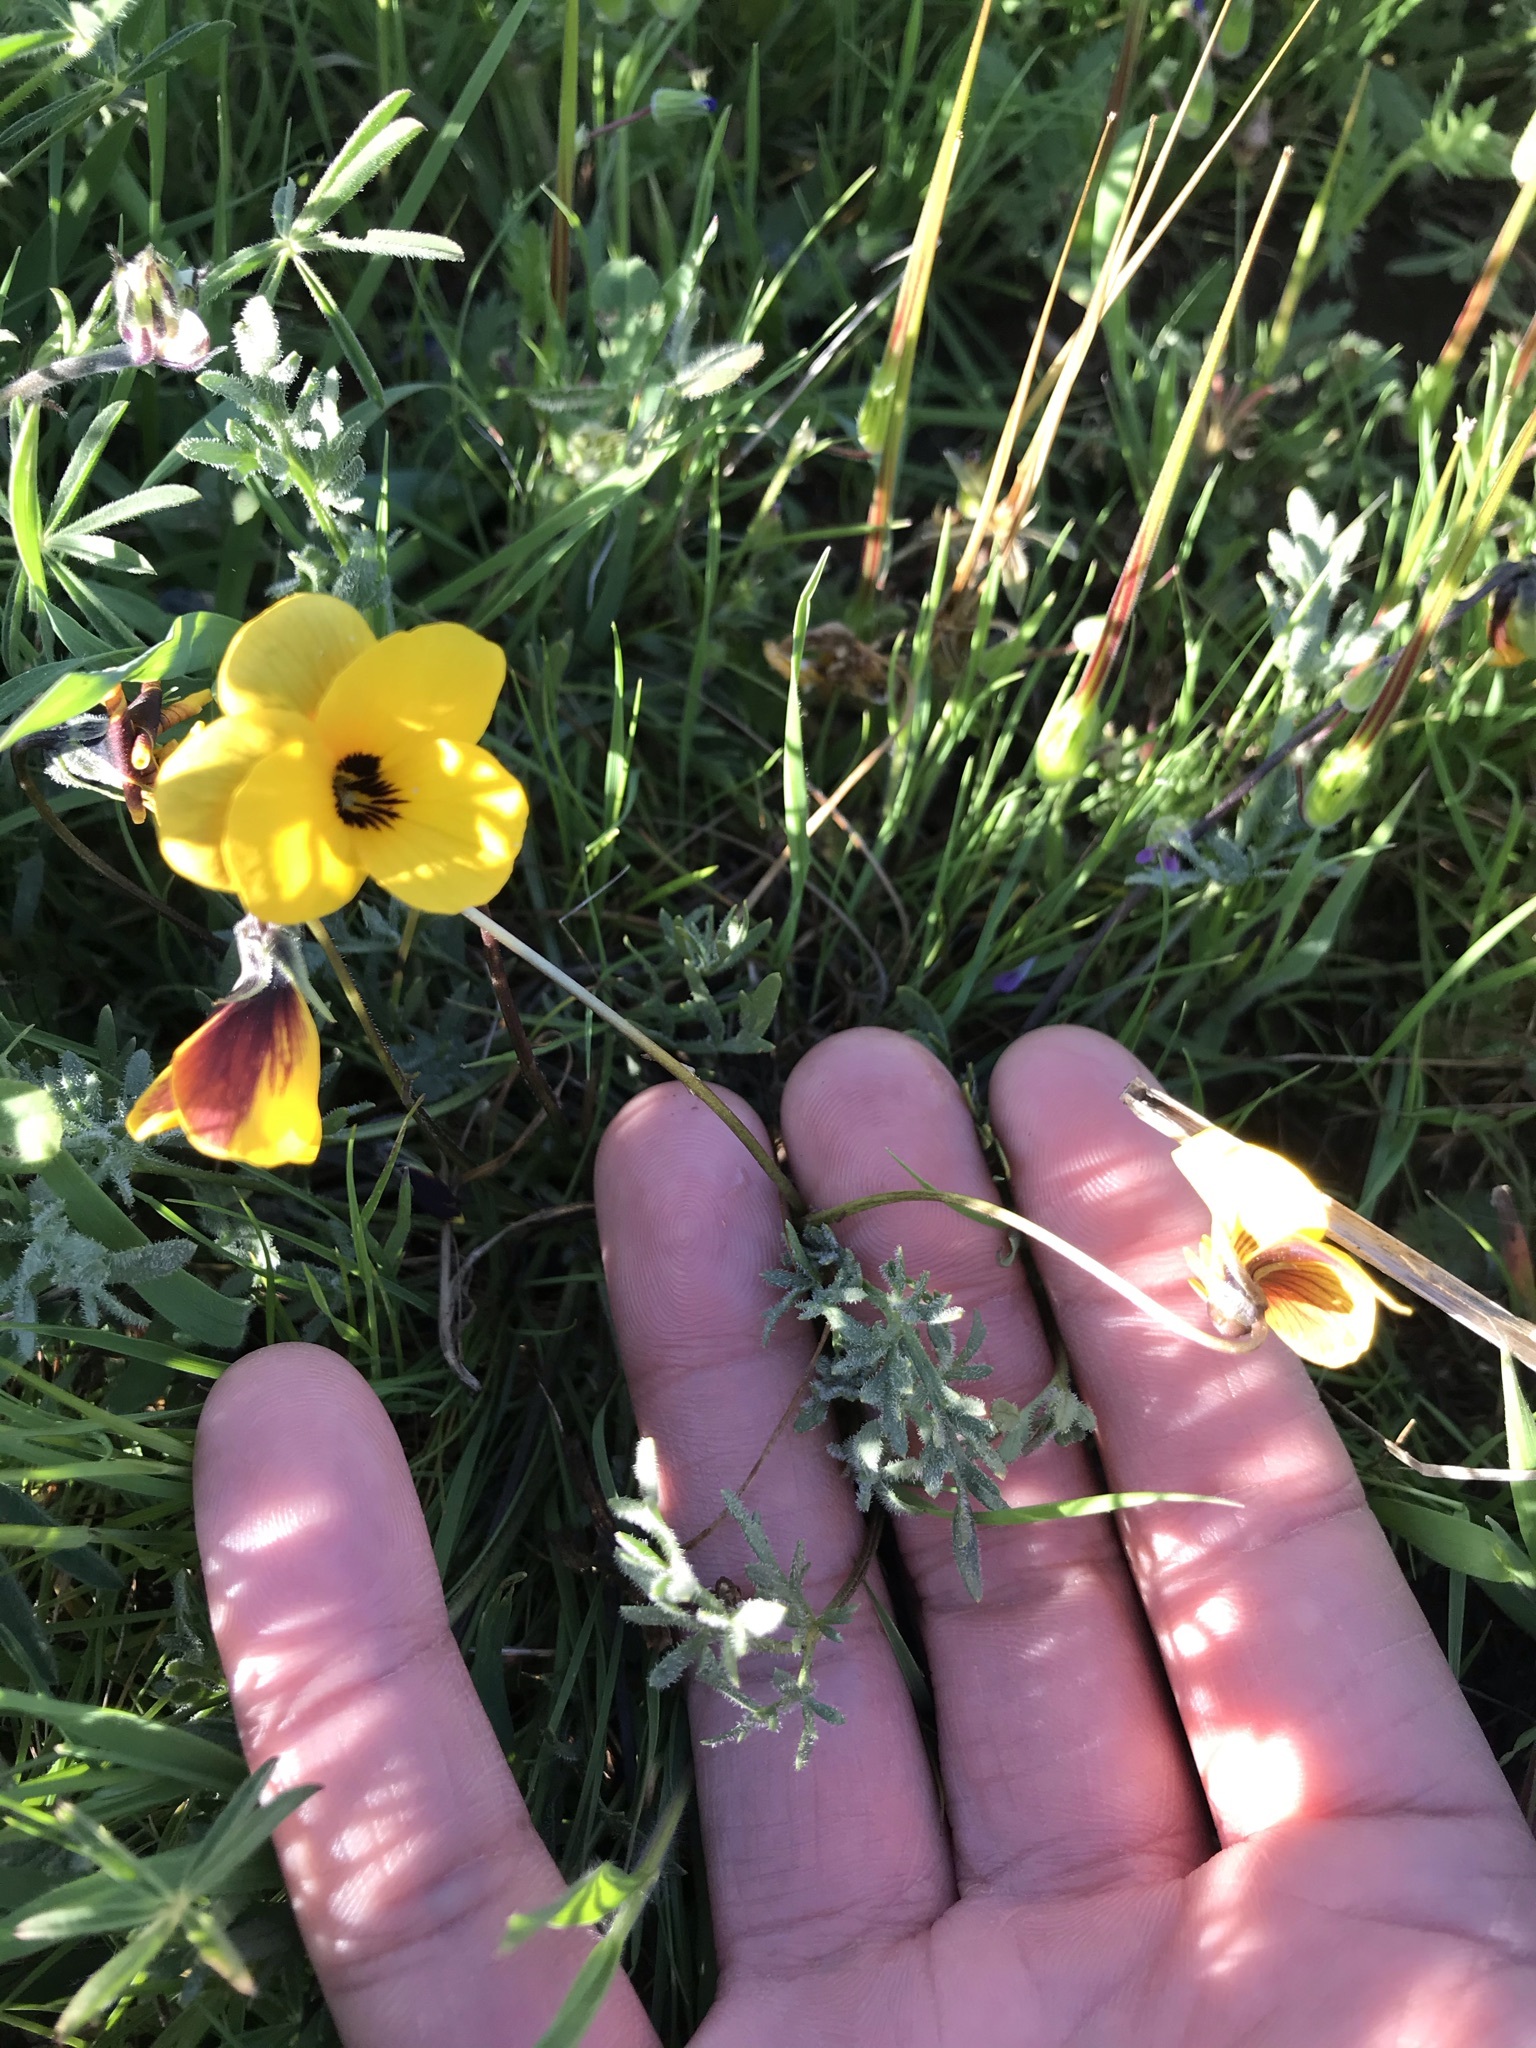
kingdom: Plantae
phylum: Tracheophyta
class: Magnoliopsida
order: Malpighiales
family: Violaceae
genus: Viola
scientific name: Viola douglasii
